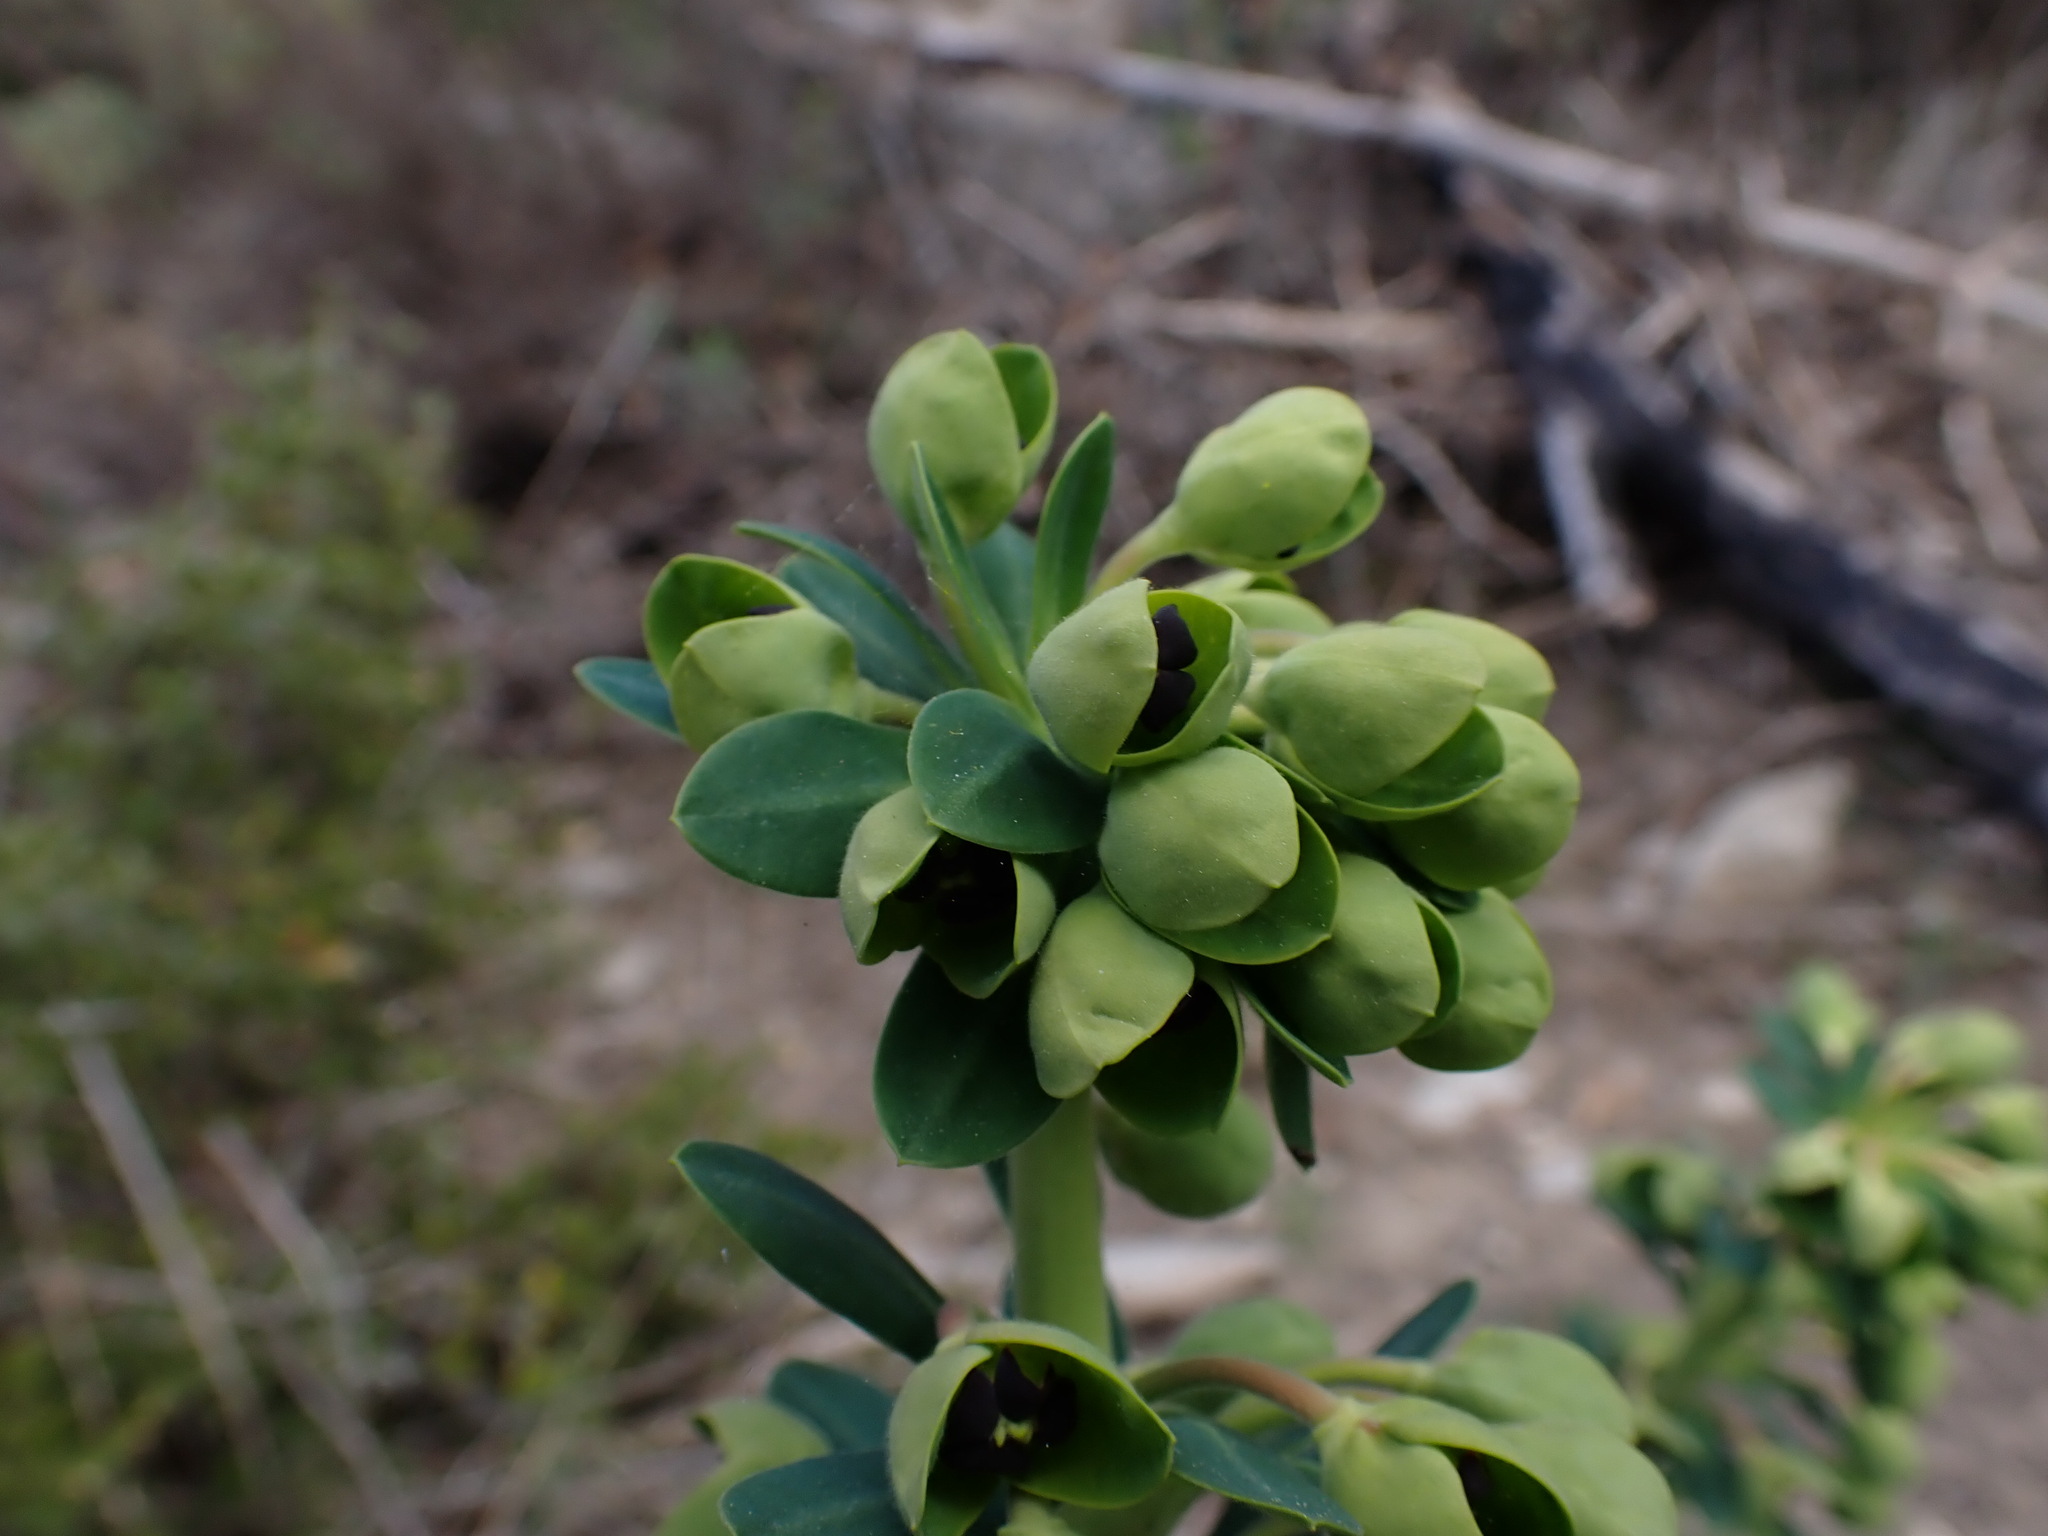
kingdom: Plantae
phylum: Tracheophyta
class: Magnoliopsida
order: Malpighiales
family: Euphorbiaceae
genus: Euphorbia
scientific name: Euphorbia characias
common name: Mediterranean spurge
